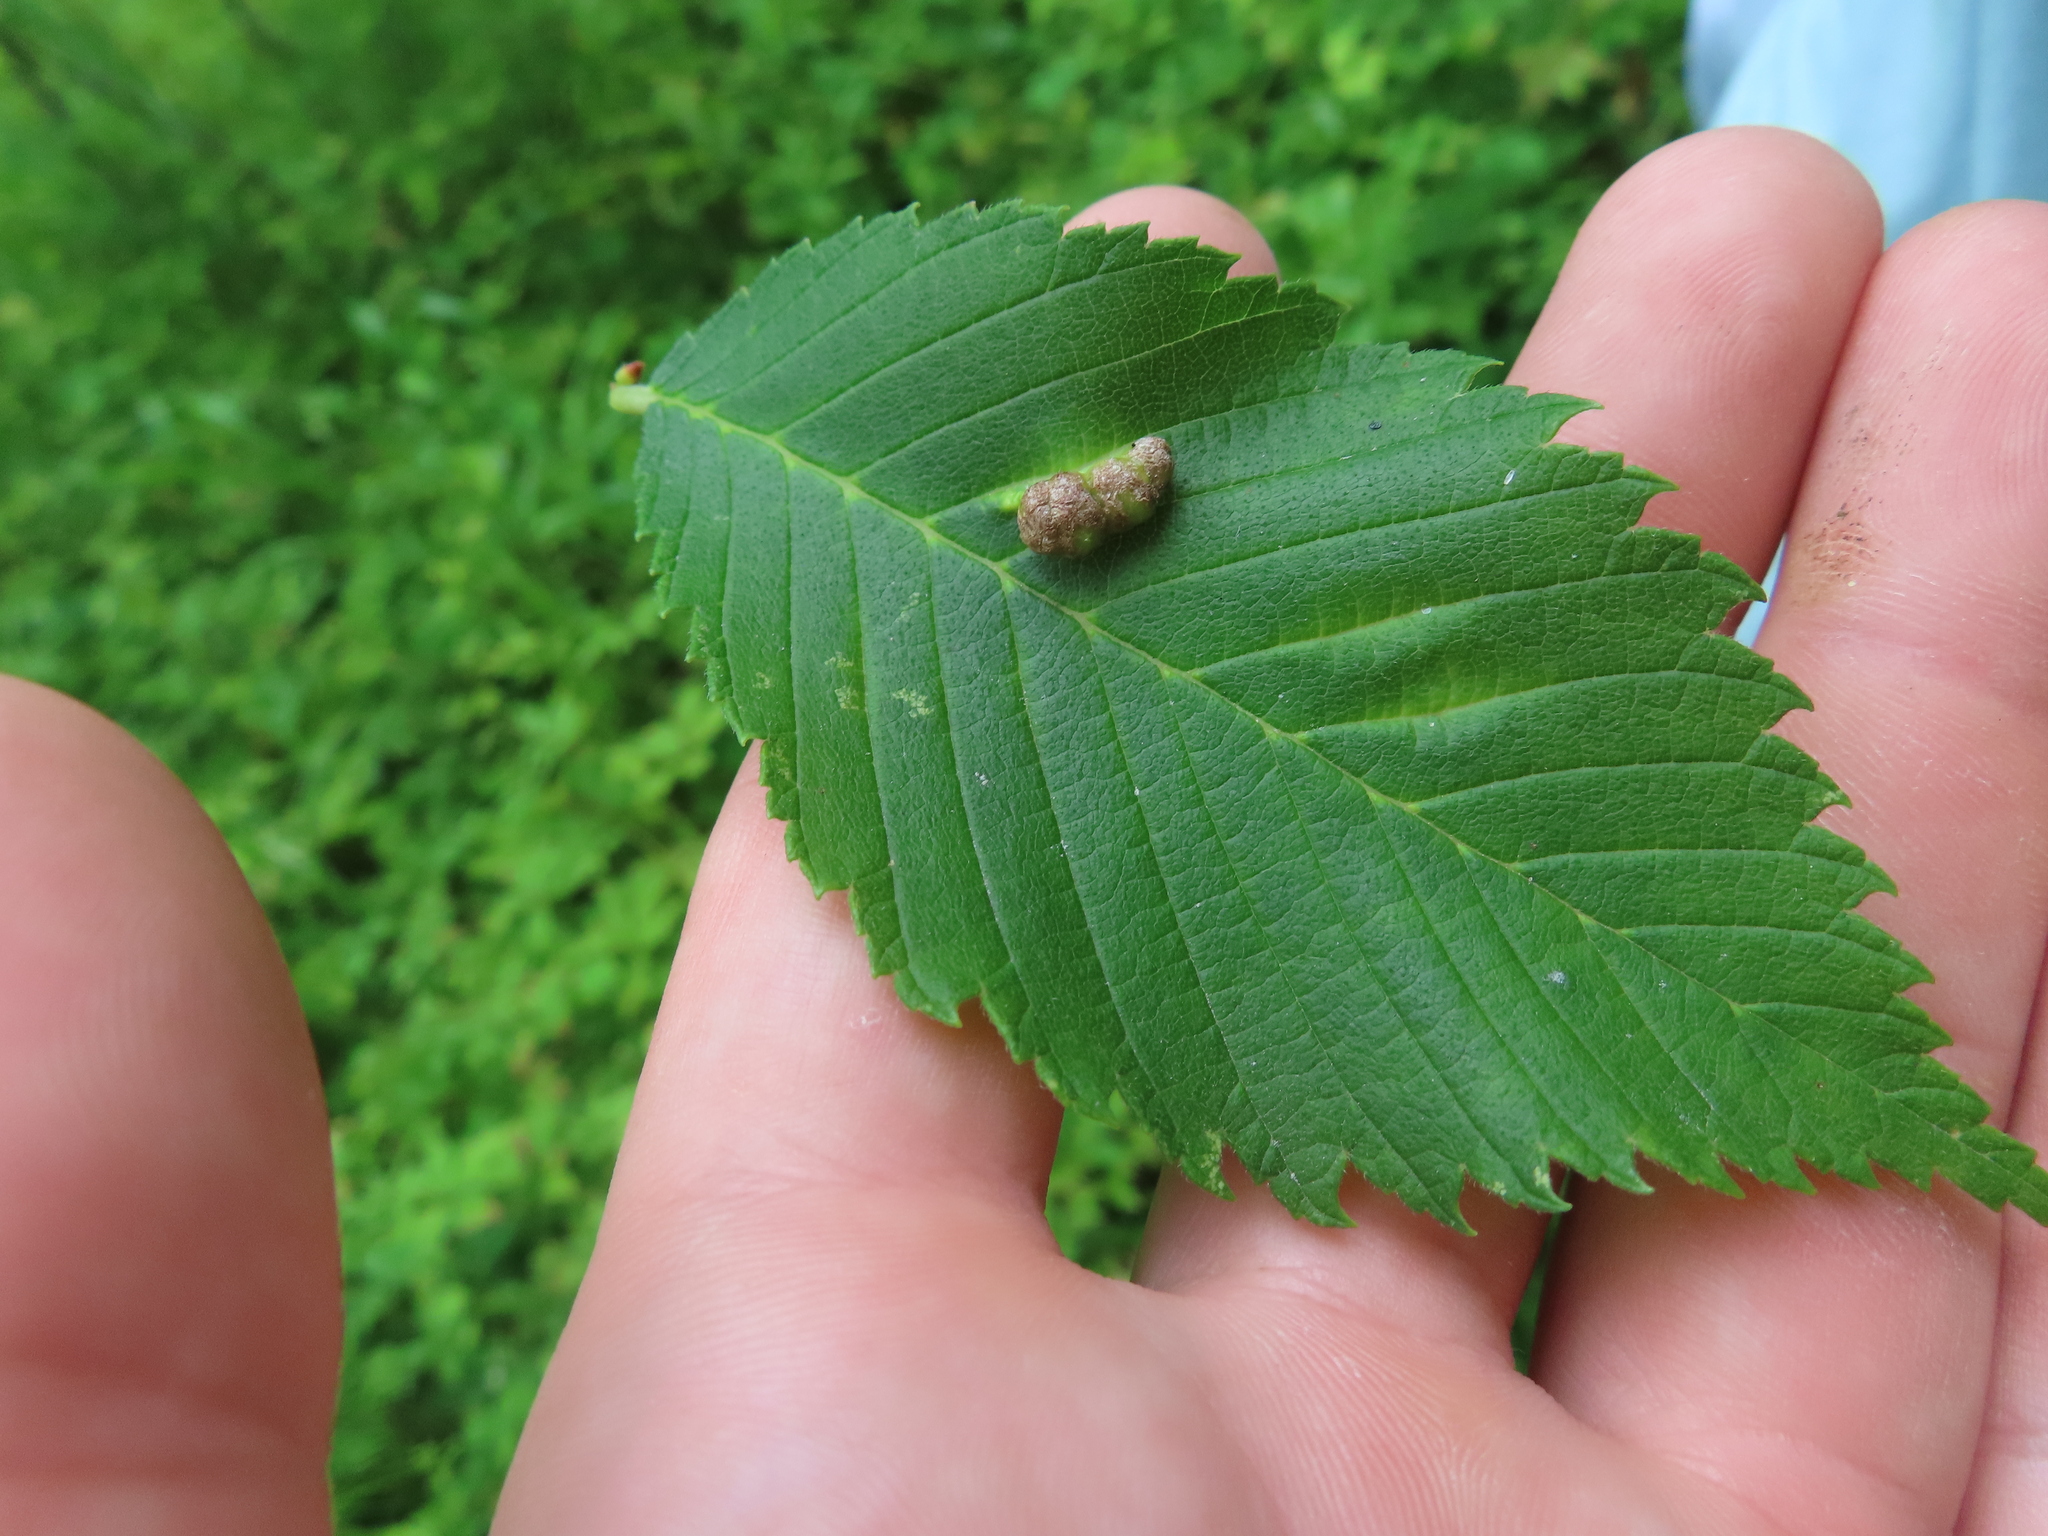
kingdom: Animalia
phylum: Arthropoda
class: Insecta
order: Hemiptera
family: Aphididae
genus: Colopha
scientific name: Colopha ulmicola
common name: Elm cockscombgall aphid
